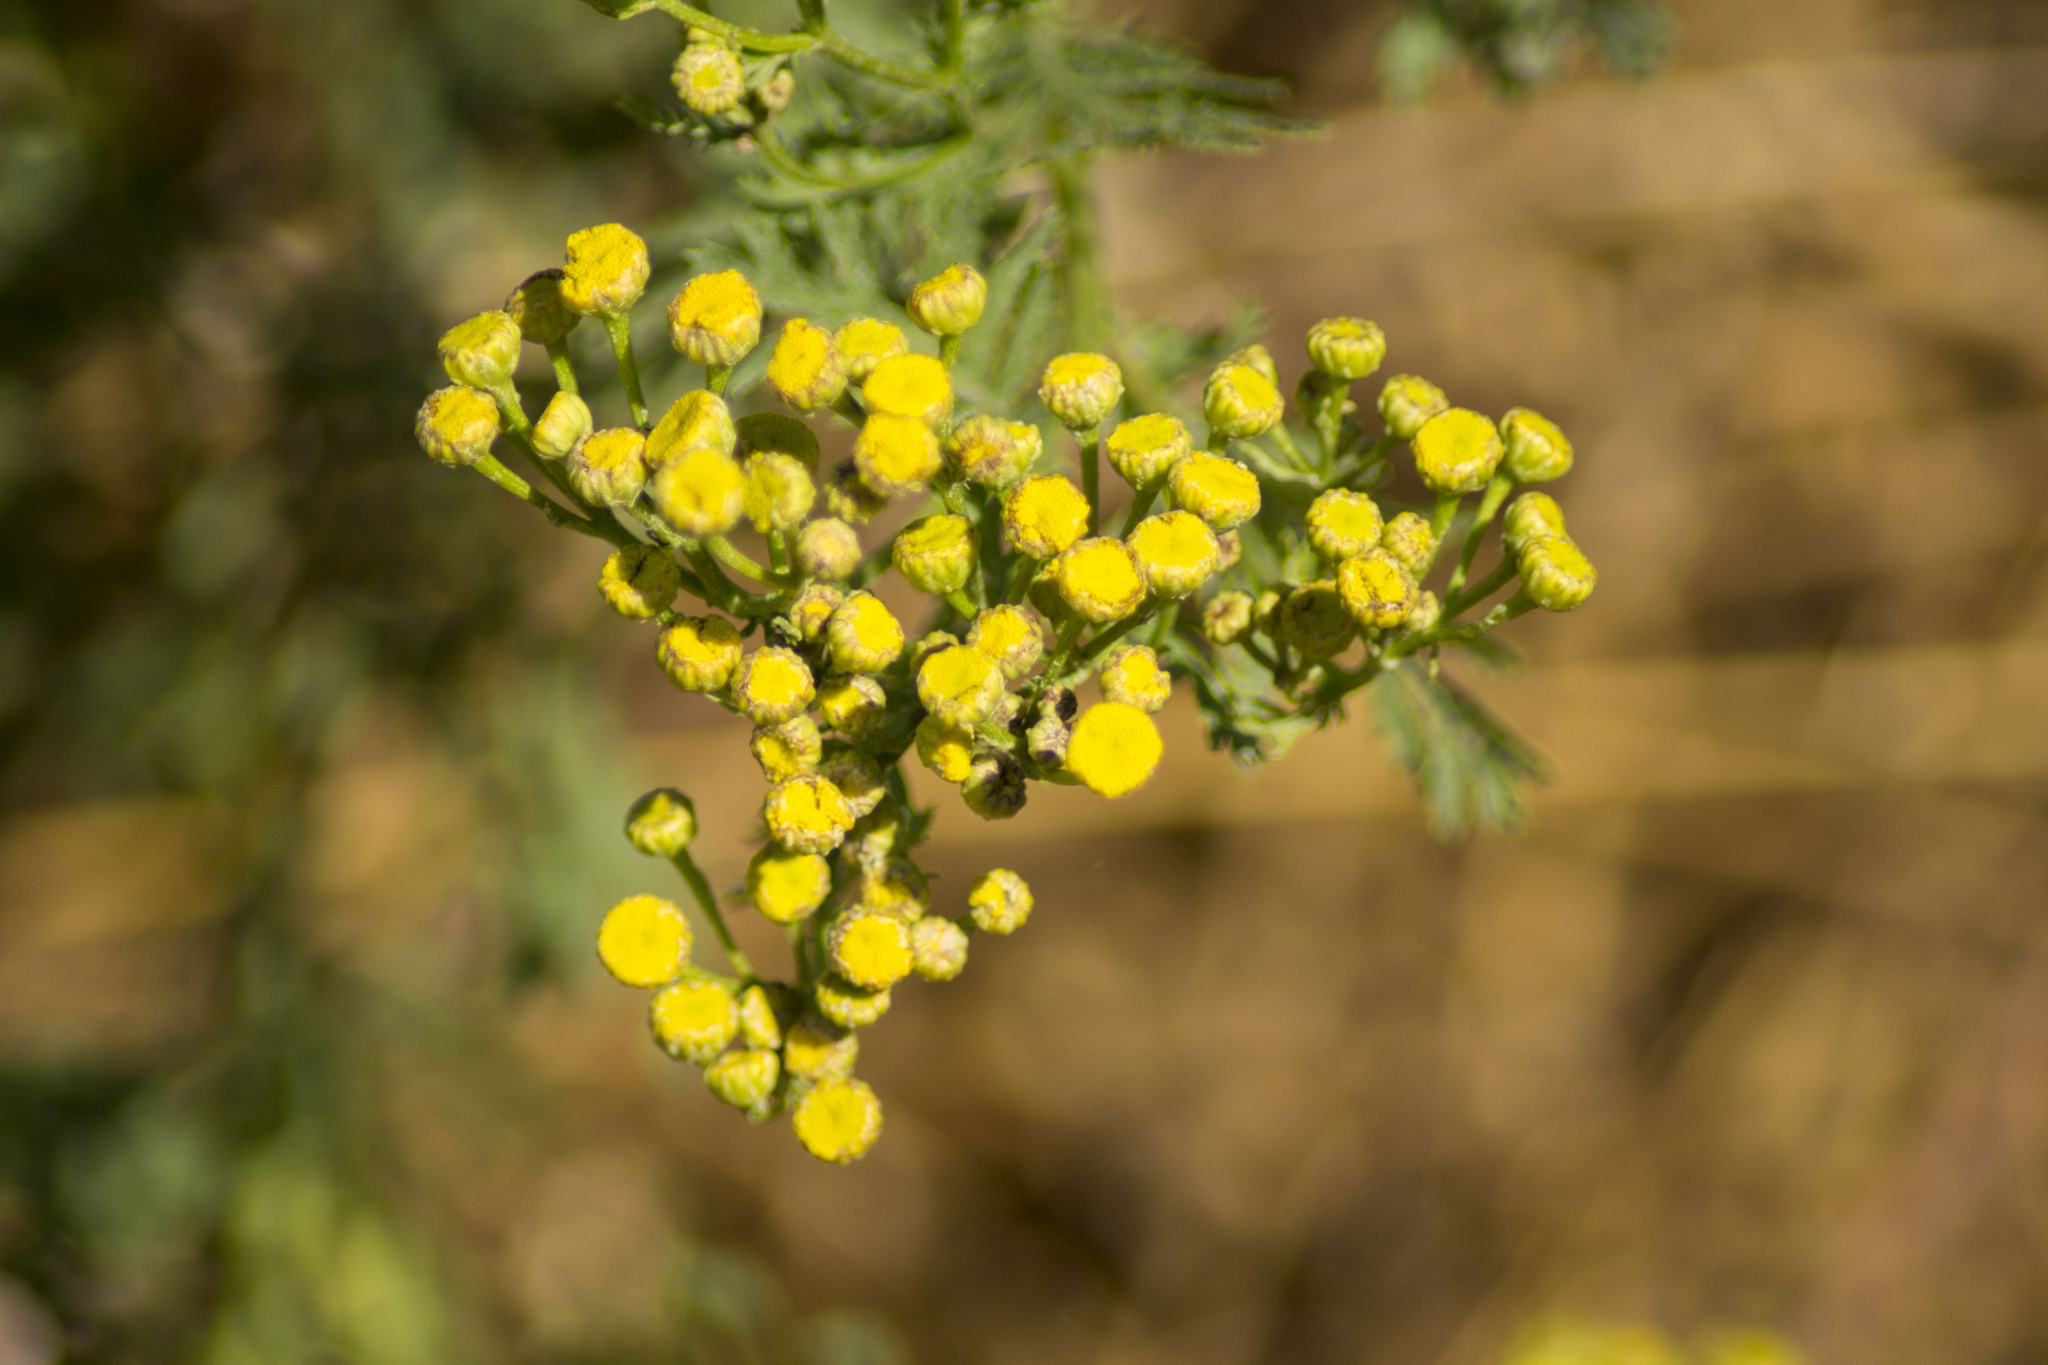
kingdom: Plantae
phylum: Tracheophyta
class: Magnoliopsida
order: Asterales
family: Asteraceae
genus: Tanacetum
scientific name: Tanacetum vulgare
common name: Common tansy
